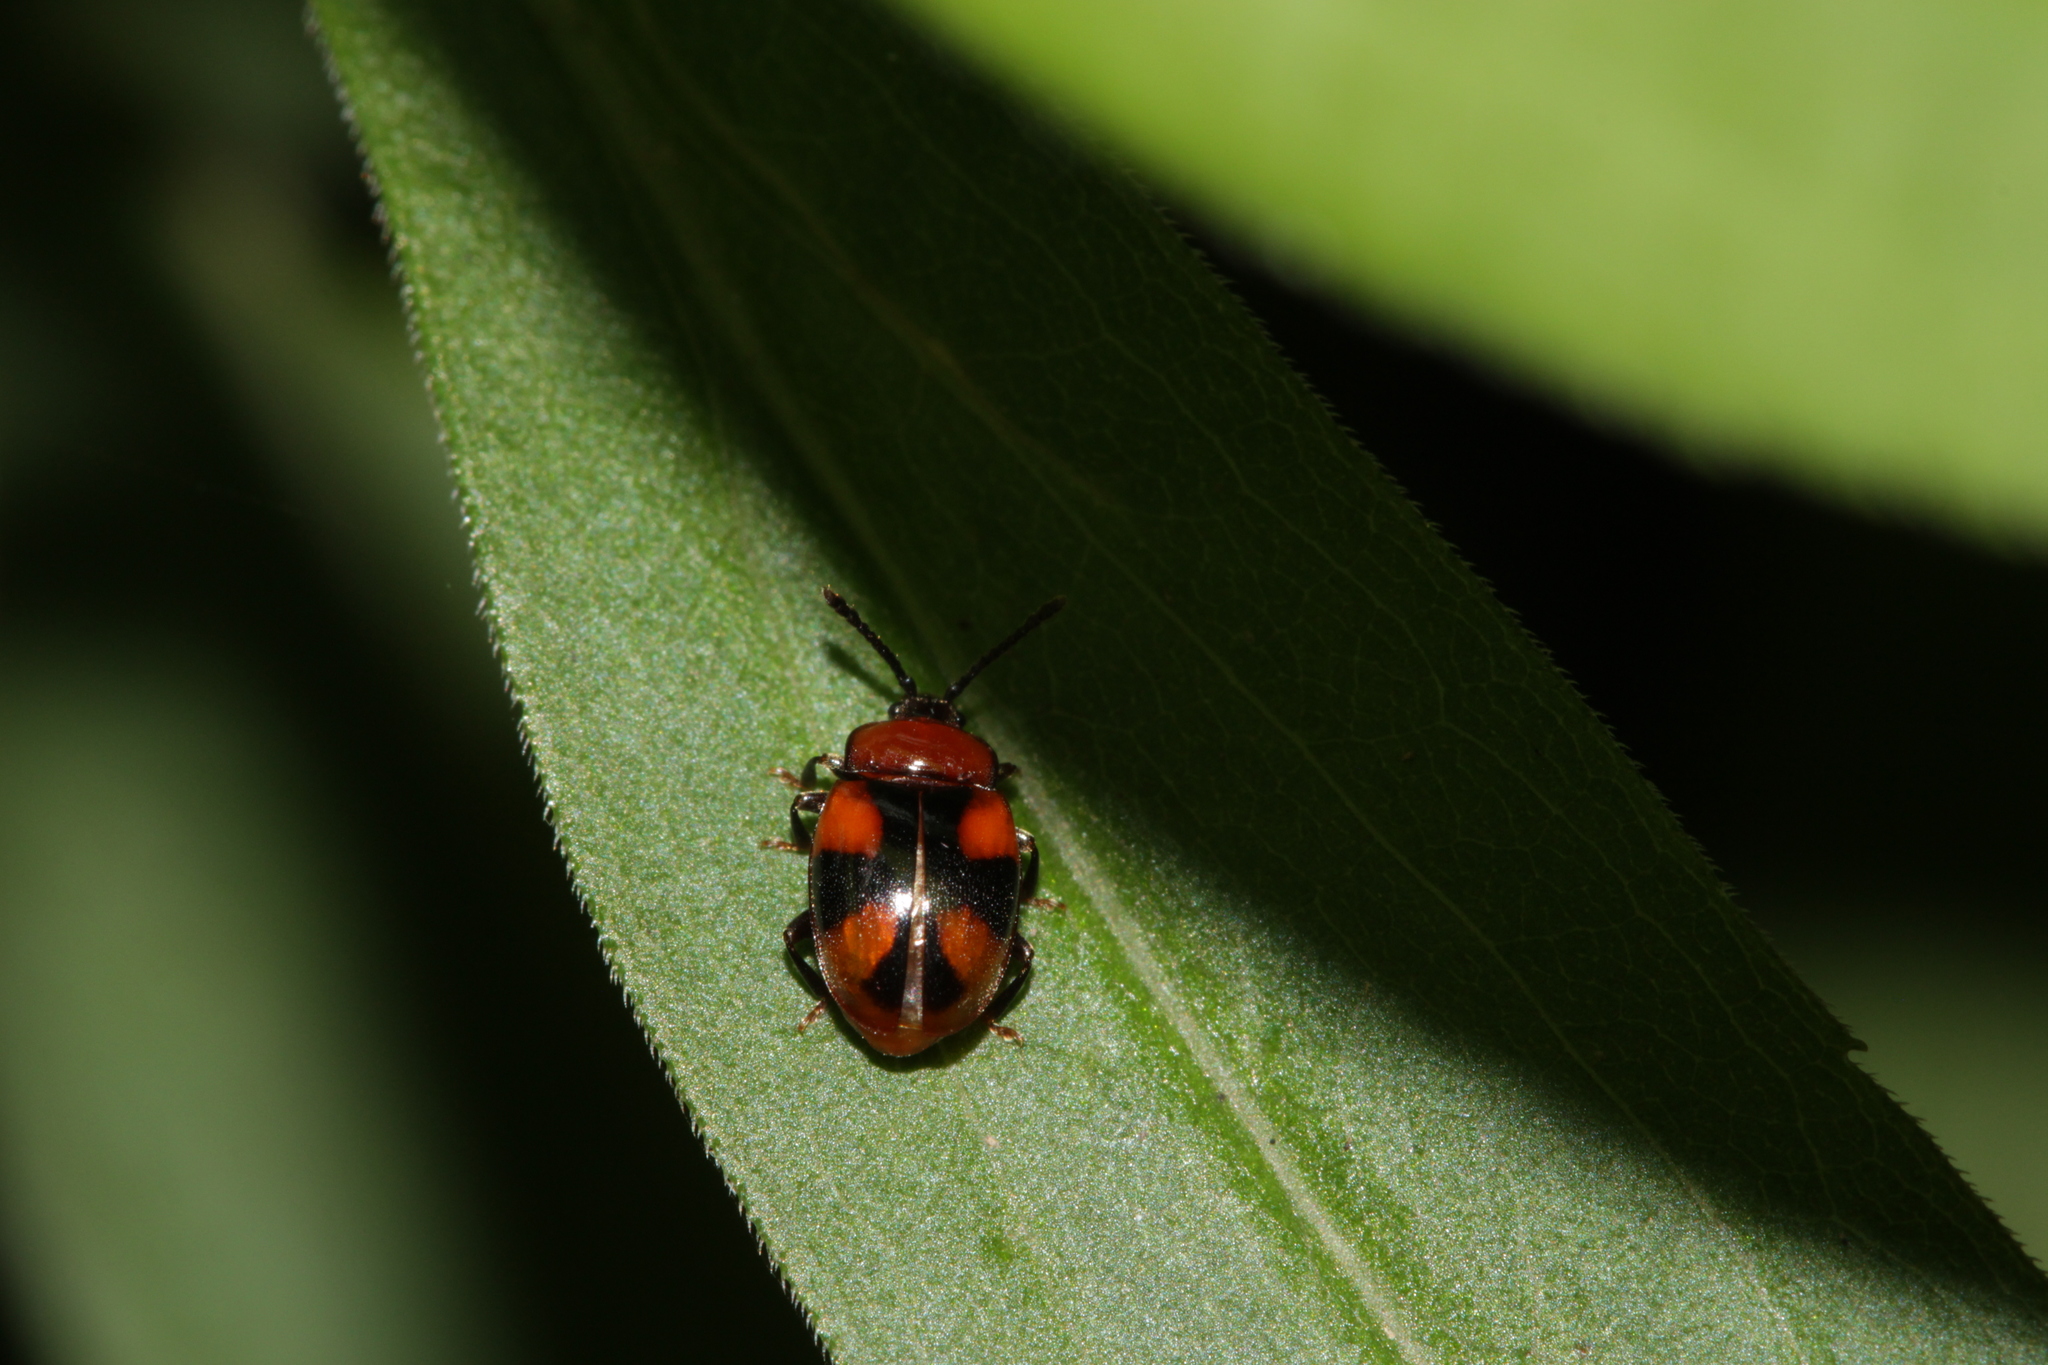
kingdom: Animalia
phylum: Arthropoda
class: Insecta
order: Coleoptera
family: Endomychidae
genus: Mycetina
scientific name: Mycetina cruciata
